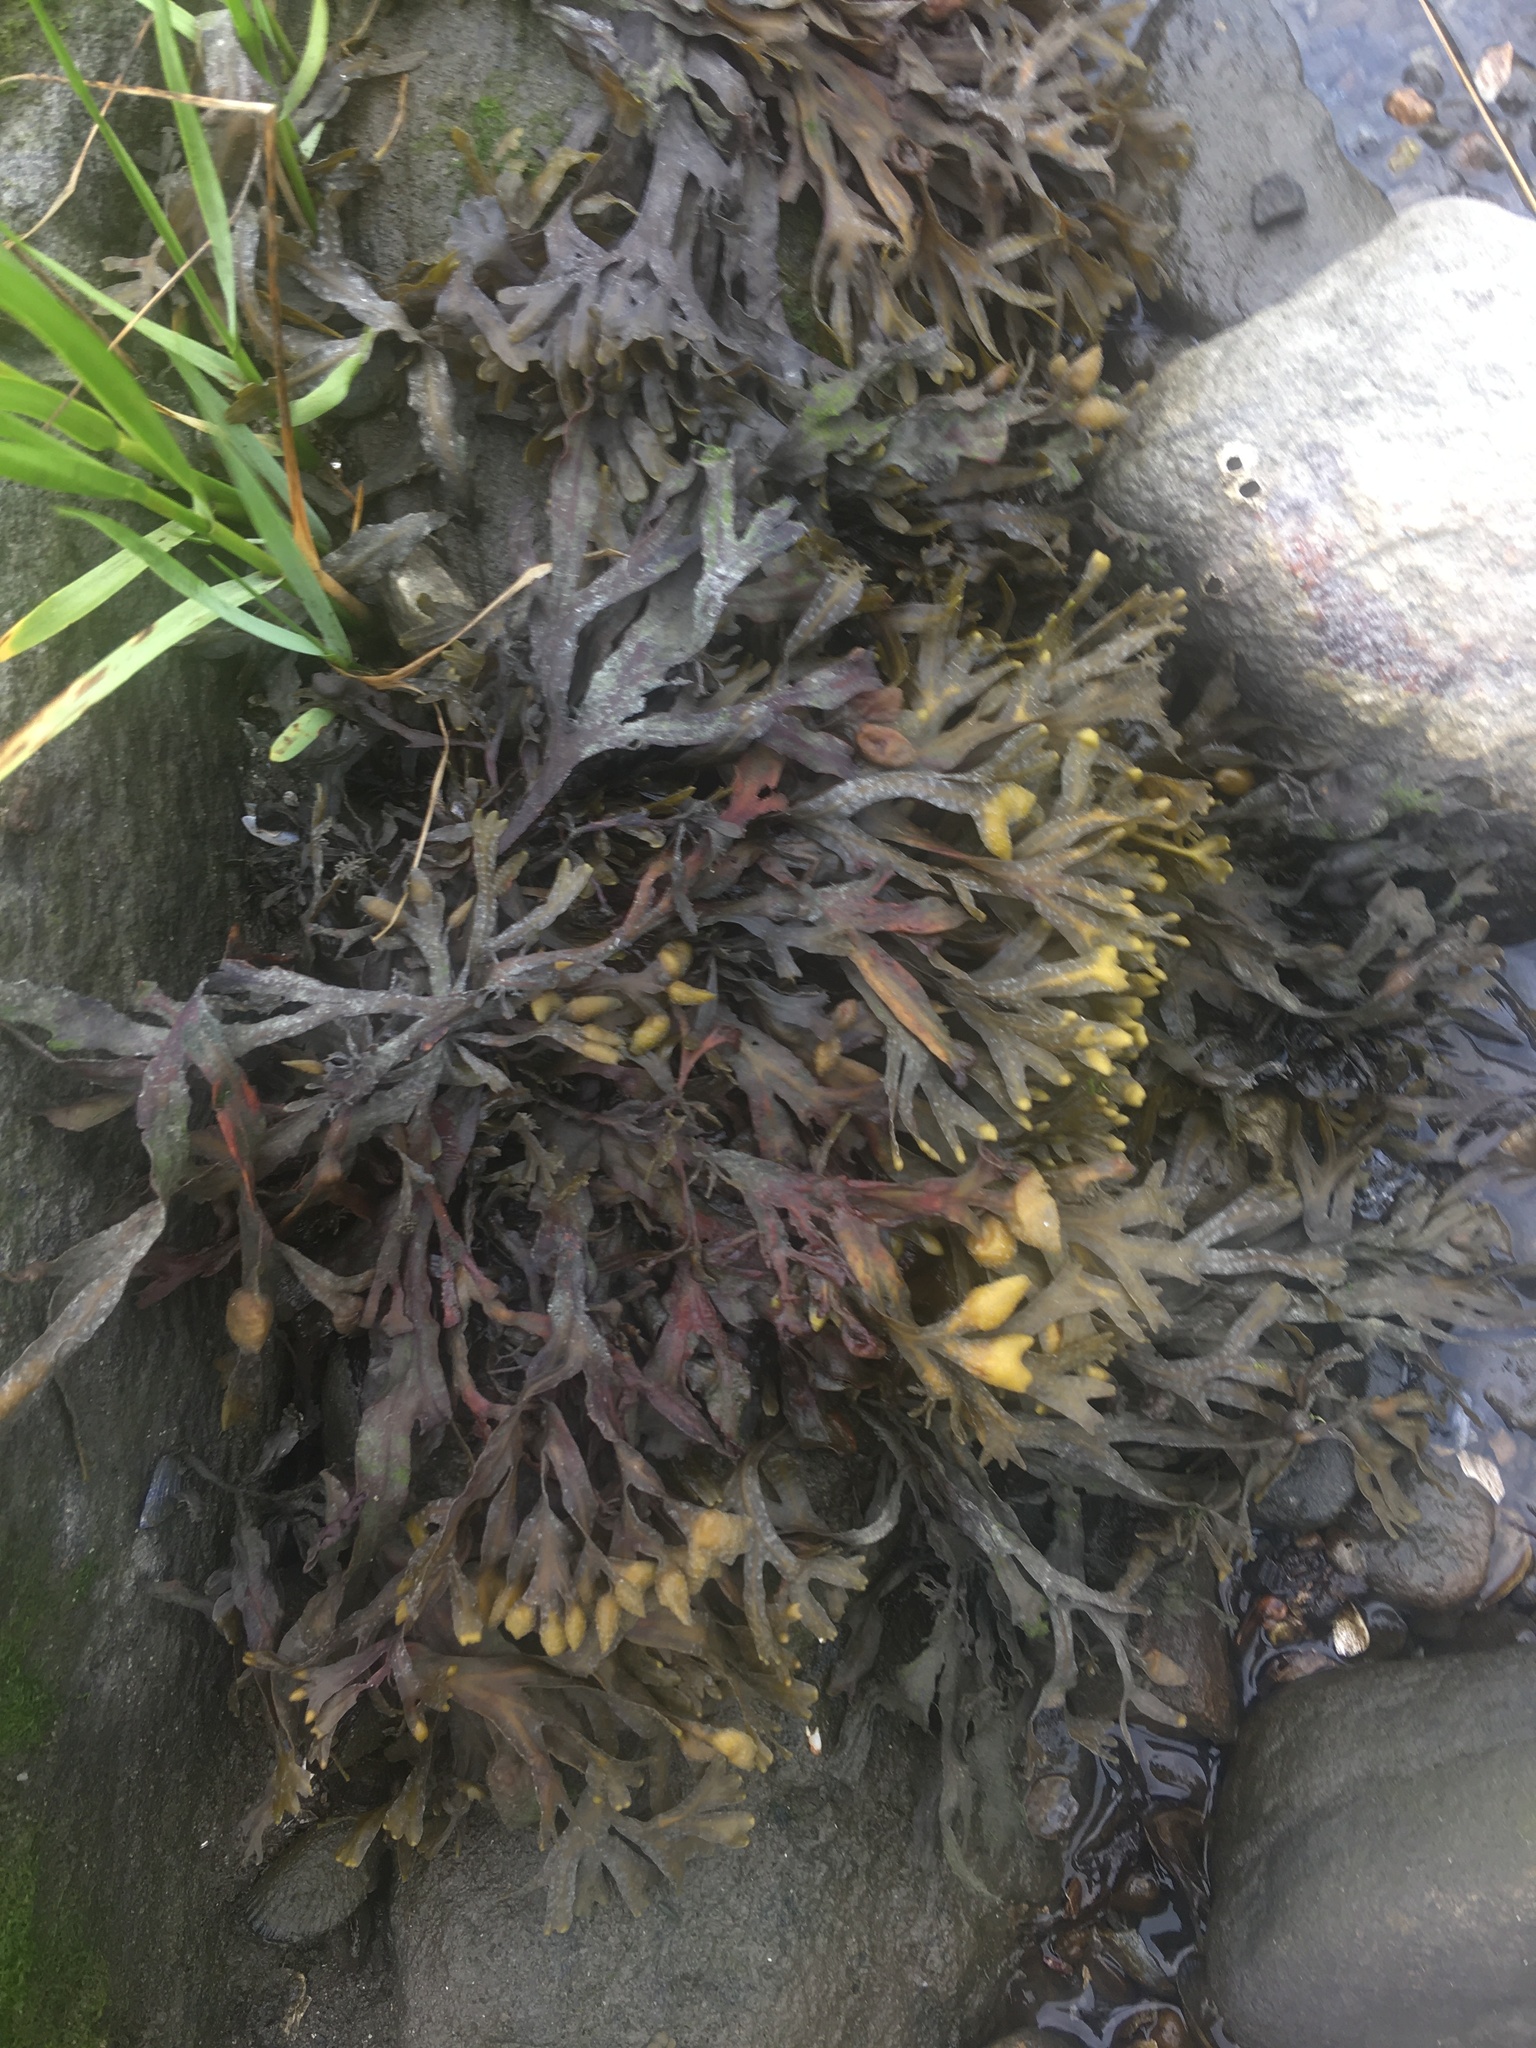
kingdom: Chromista
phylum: Ochrophyta
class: Phaeophyceae
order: Fucales
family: Fucaceae
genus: Fucus
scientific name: Fucus distichus
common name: Rockweed
